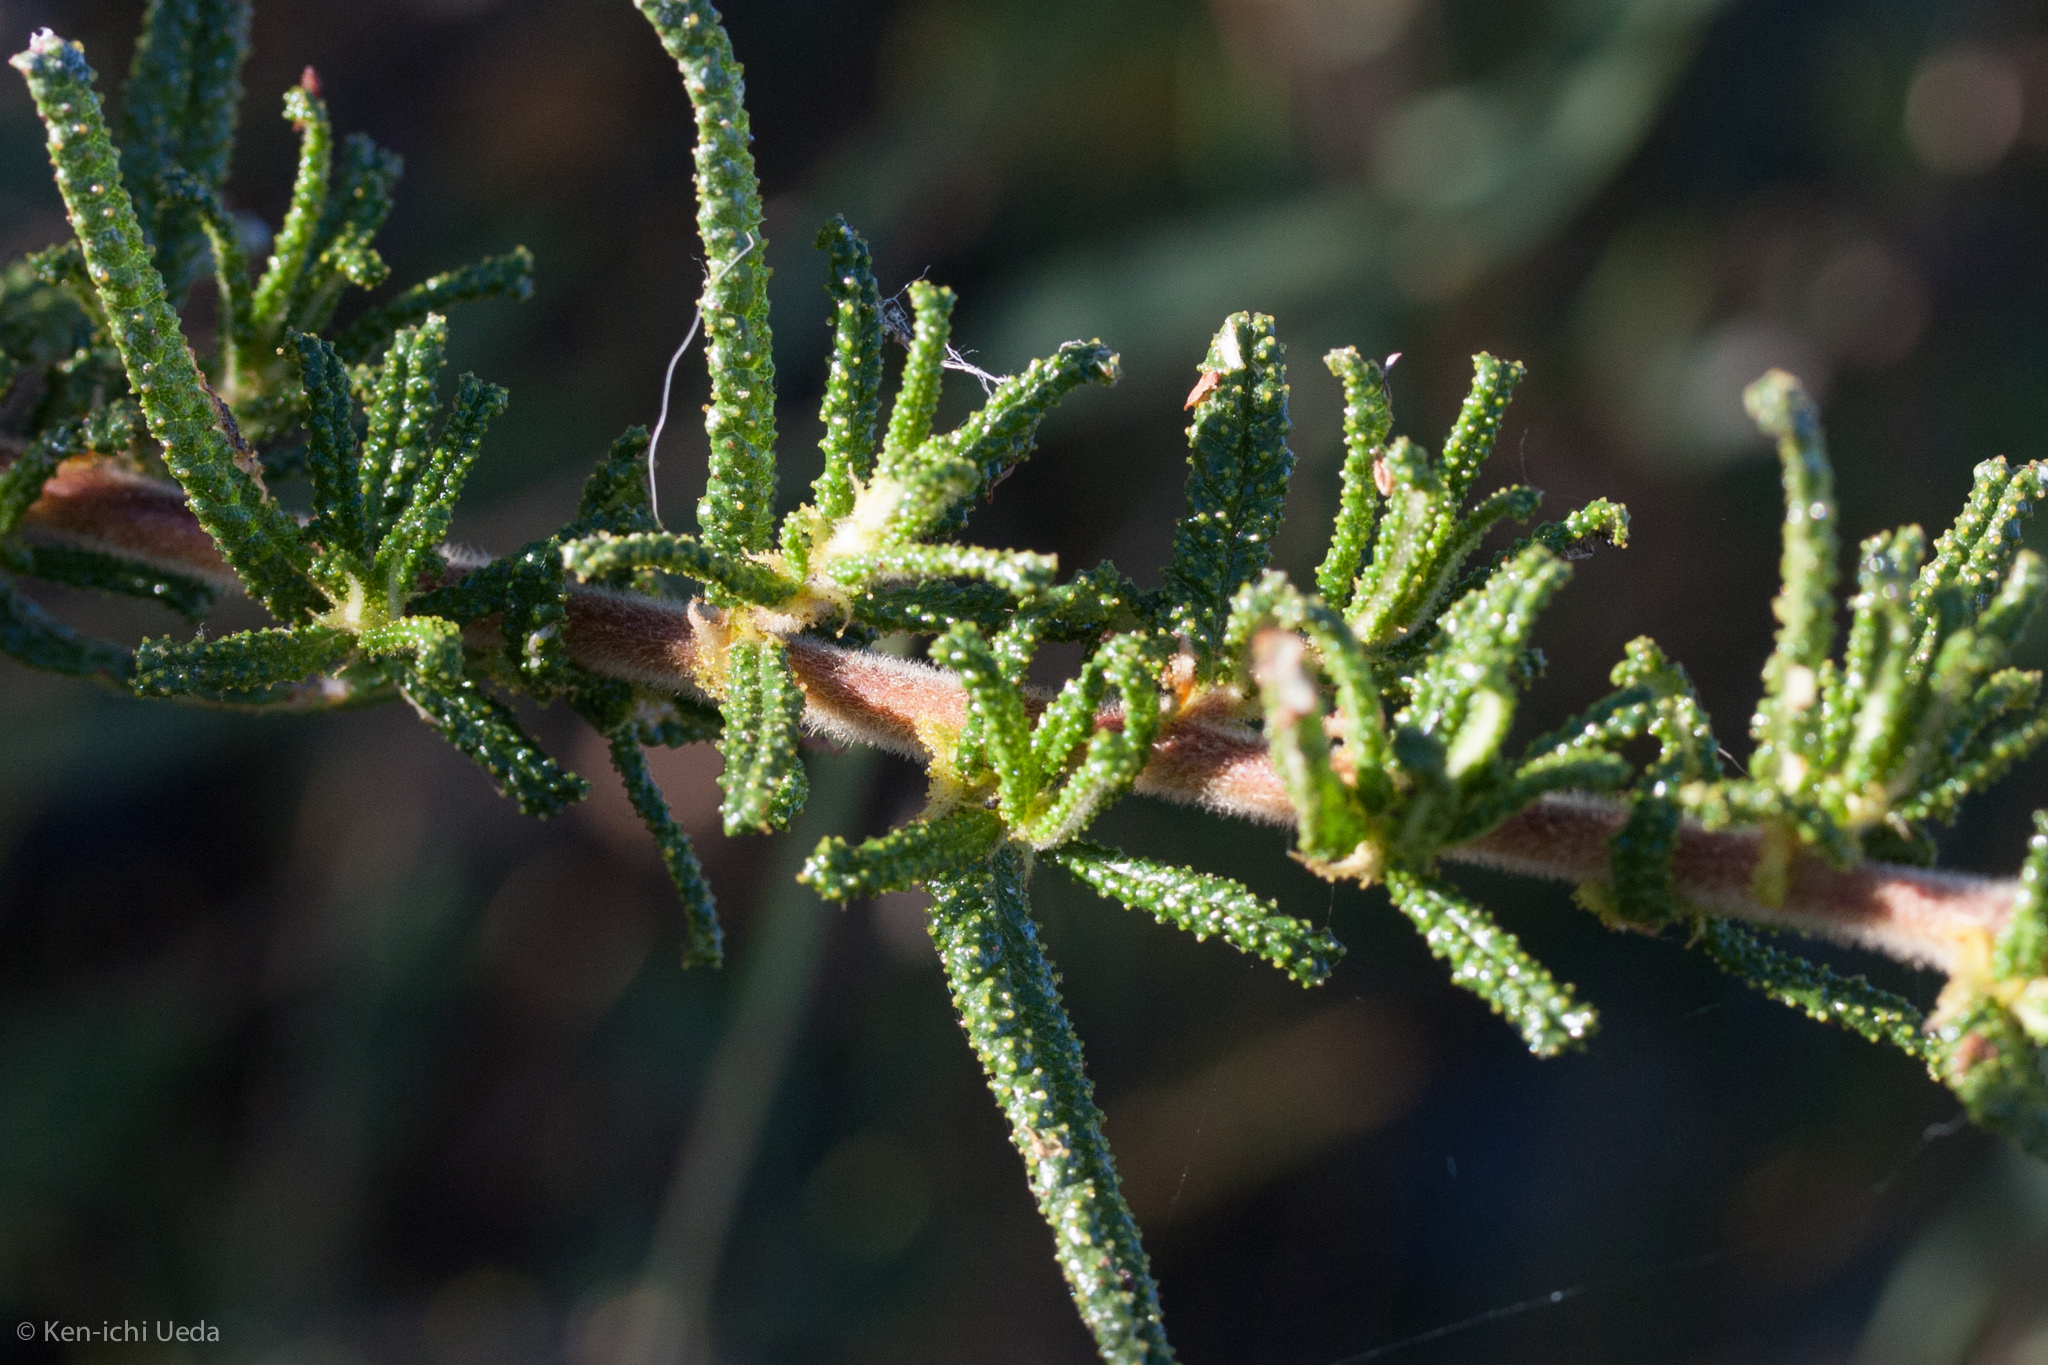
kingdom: Plantae
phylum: Tracheophyta
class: Magnoliopsida
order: Rosales
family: Rhamnaceae
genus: Ceanothus
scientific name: Ceanothus papillosus
